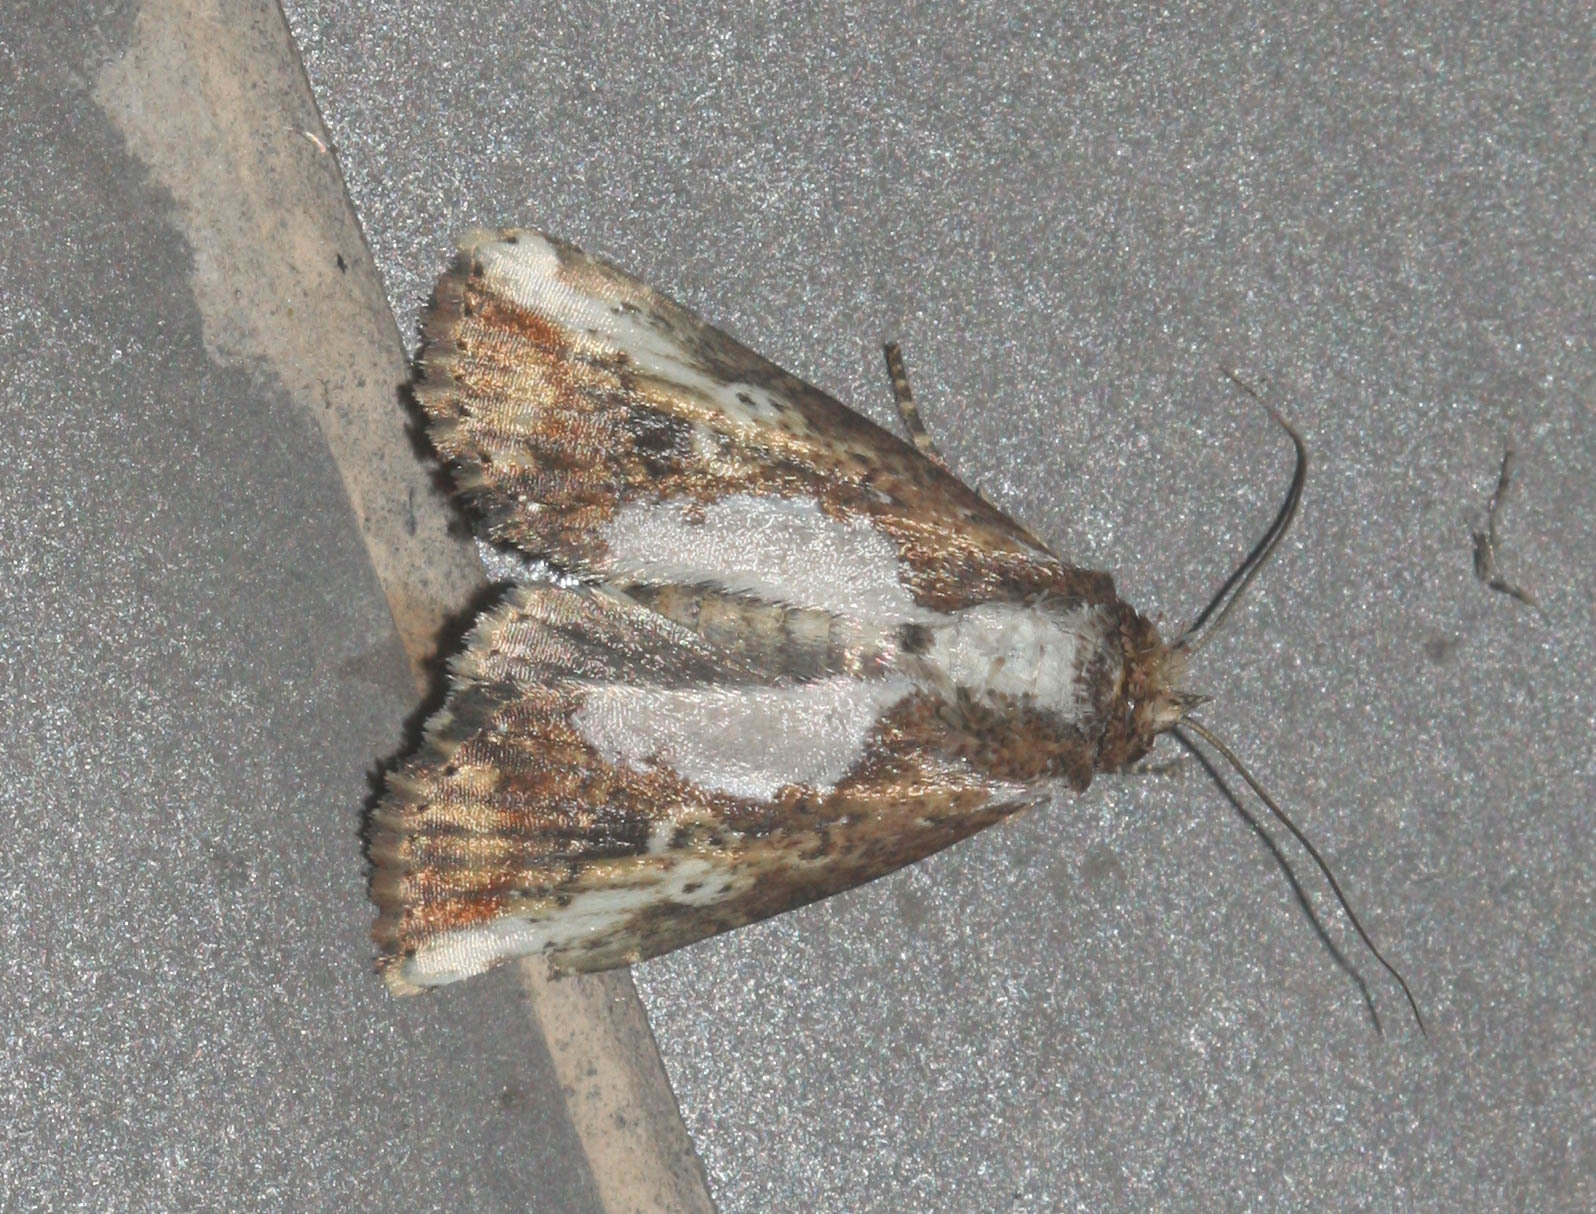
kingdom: Animalia
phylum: Arthropoda
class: Insecta
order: Lepidoptera
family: Noctuidae
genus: Bagada
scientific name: Bagada poliomera
